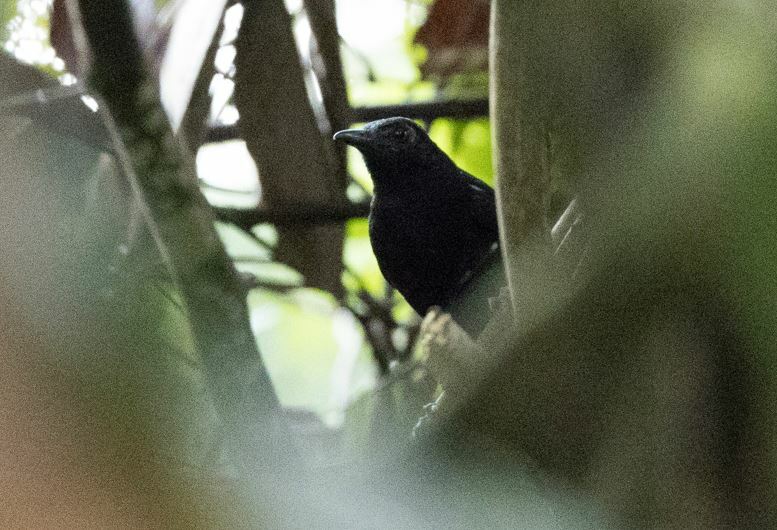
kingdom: Animalia
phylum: Chordata
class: Aves
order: Passeriformes
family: Thamnophilidae
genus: Myrmeciza
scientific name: Myrmeciza goeldii
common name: Goeldi's antbird
